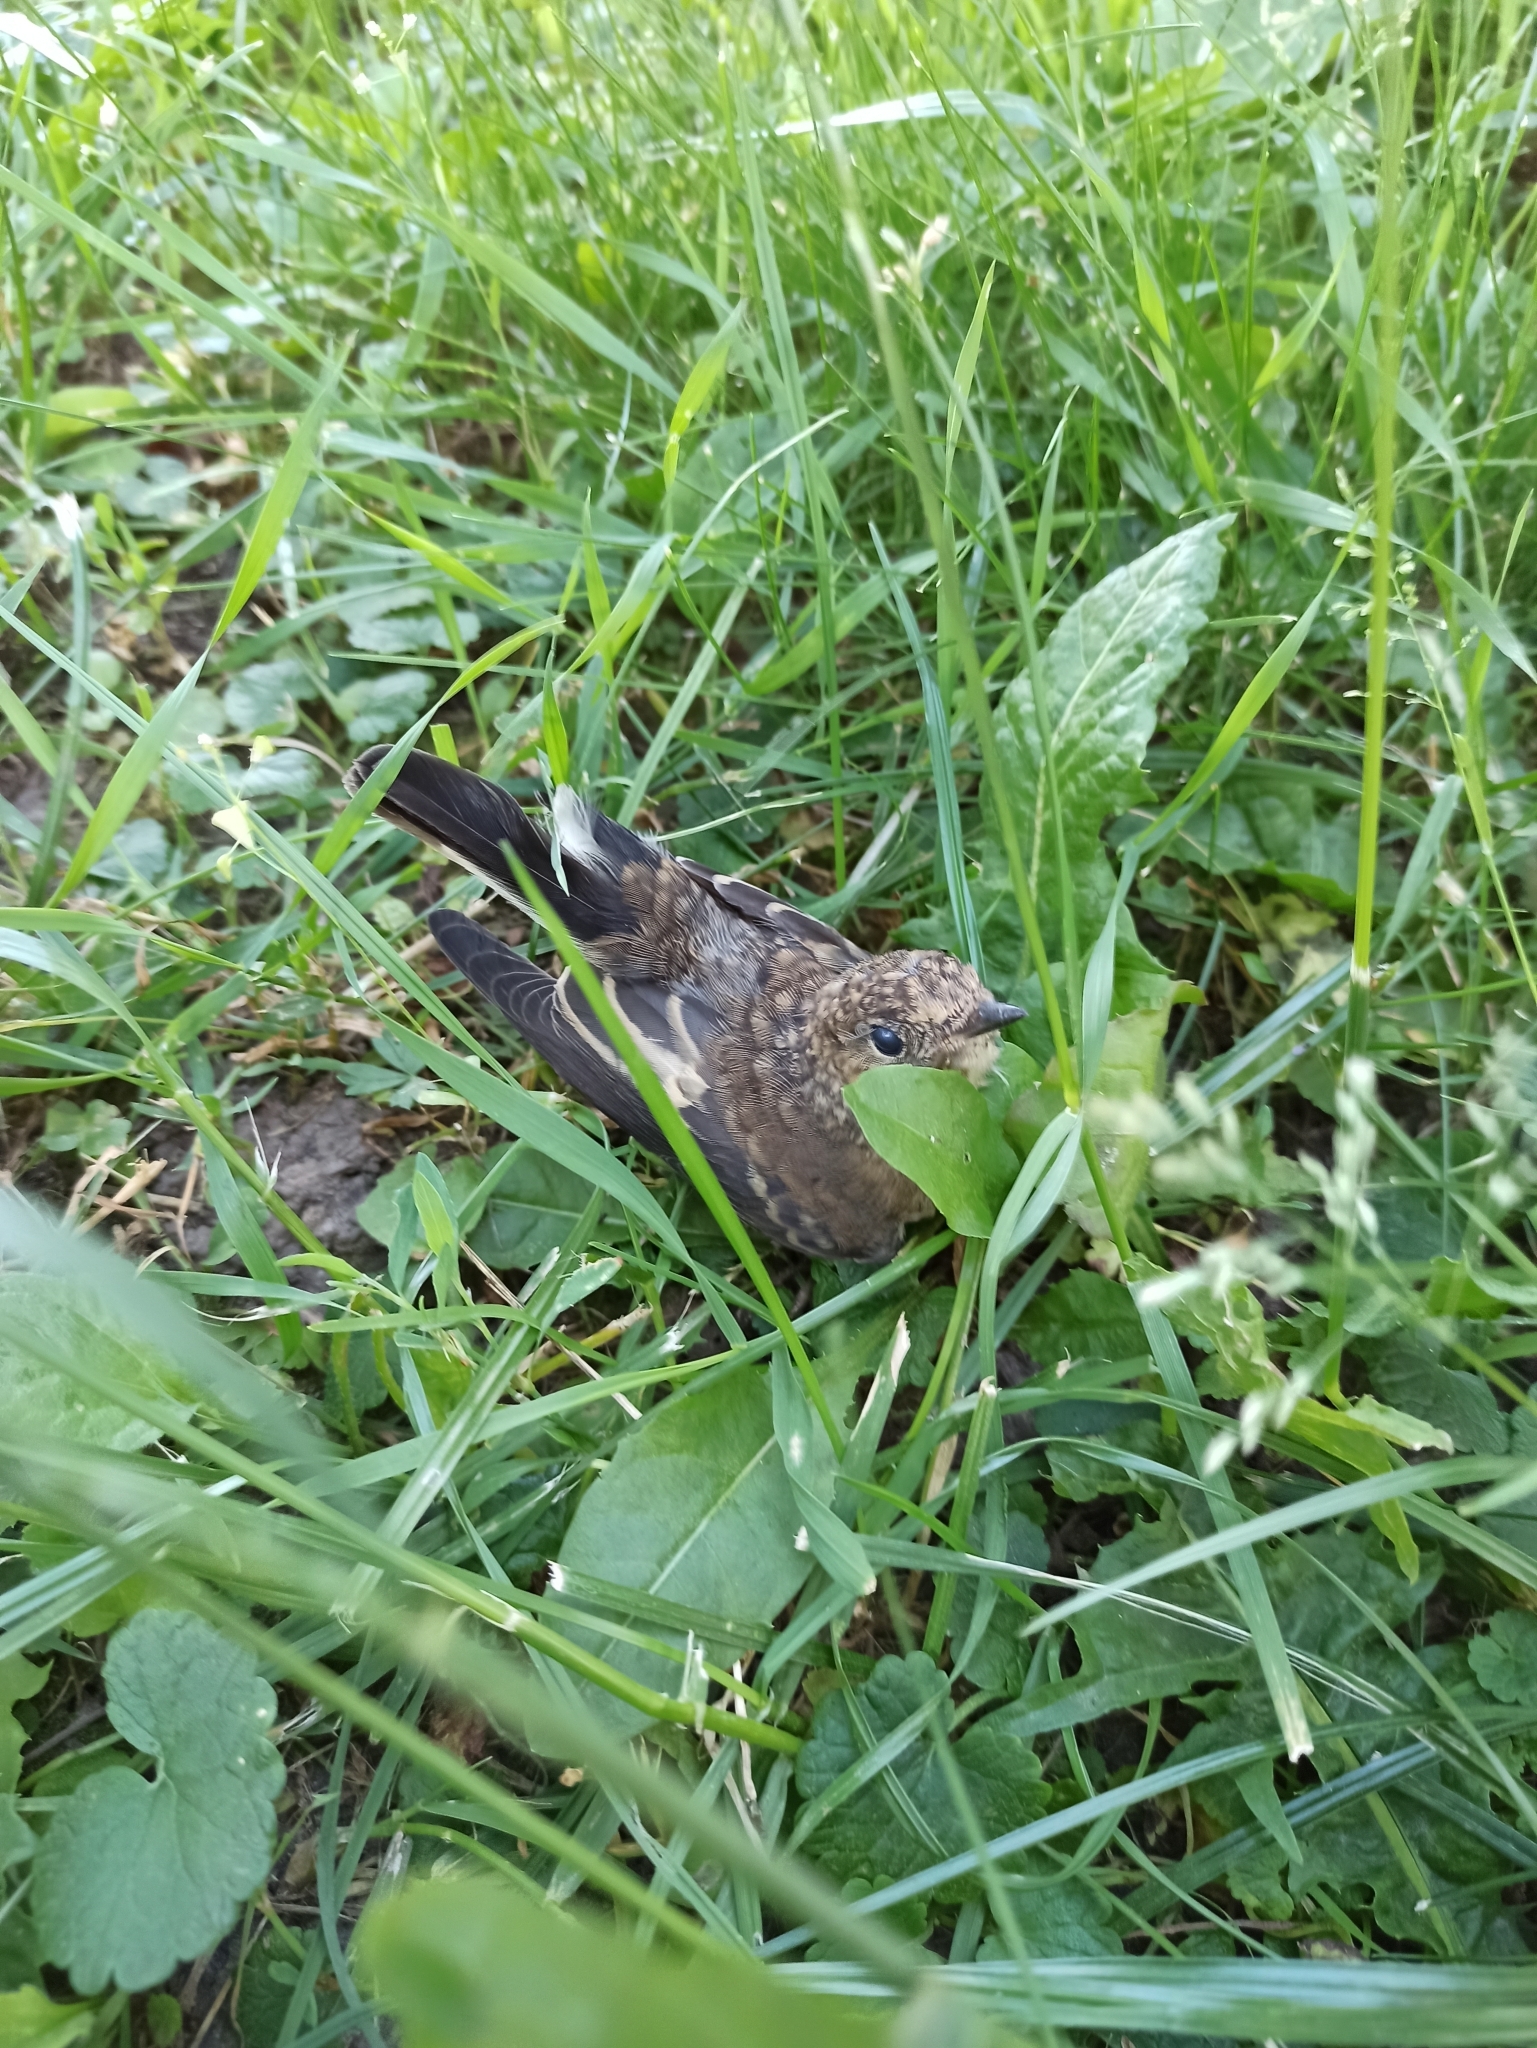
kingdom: Animalia
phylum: Chordata
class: Aves
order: Passeriformes
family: Muscicapidae
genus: Ficedula
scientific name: Ficedula hypoleuca
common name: European pied flycatcher
